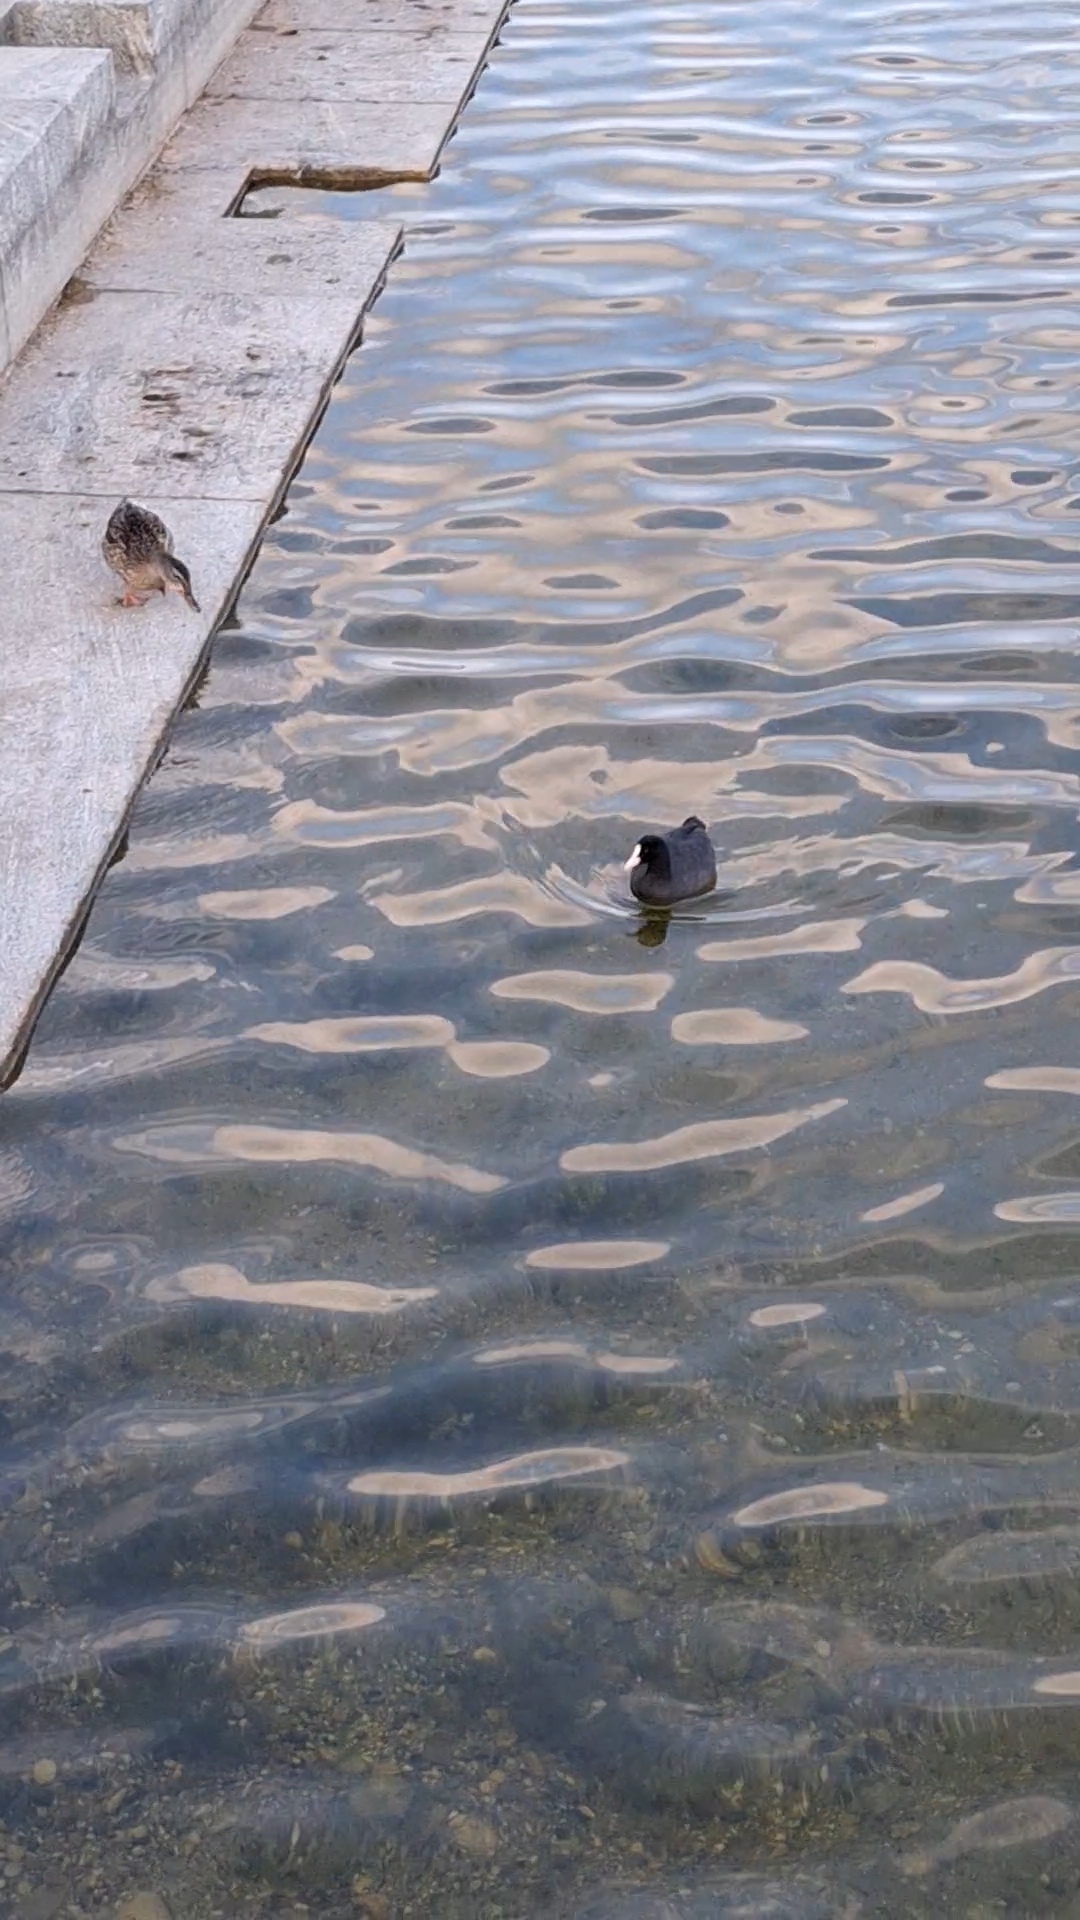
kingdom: Animalia
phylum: Chordata
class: Aves
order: Gruiformes
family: Rallidae
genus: Fulica
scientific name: Fulica atra
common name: Eurasian coot
